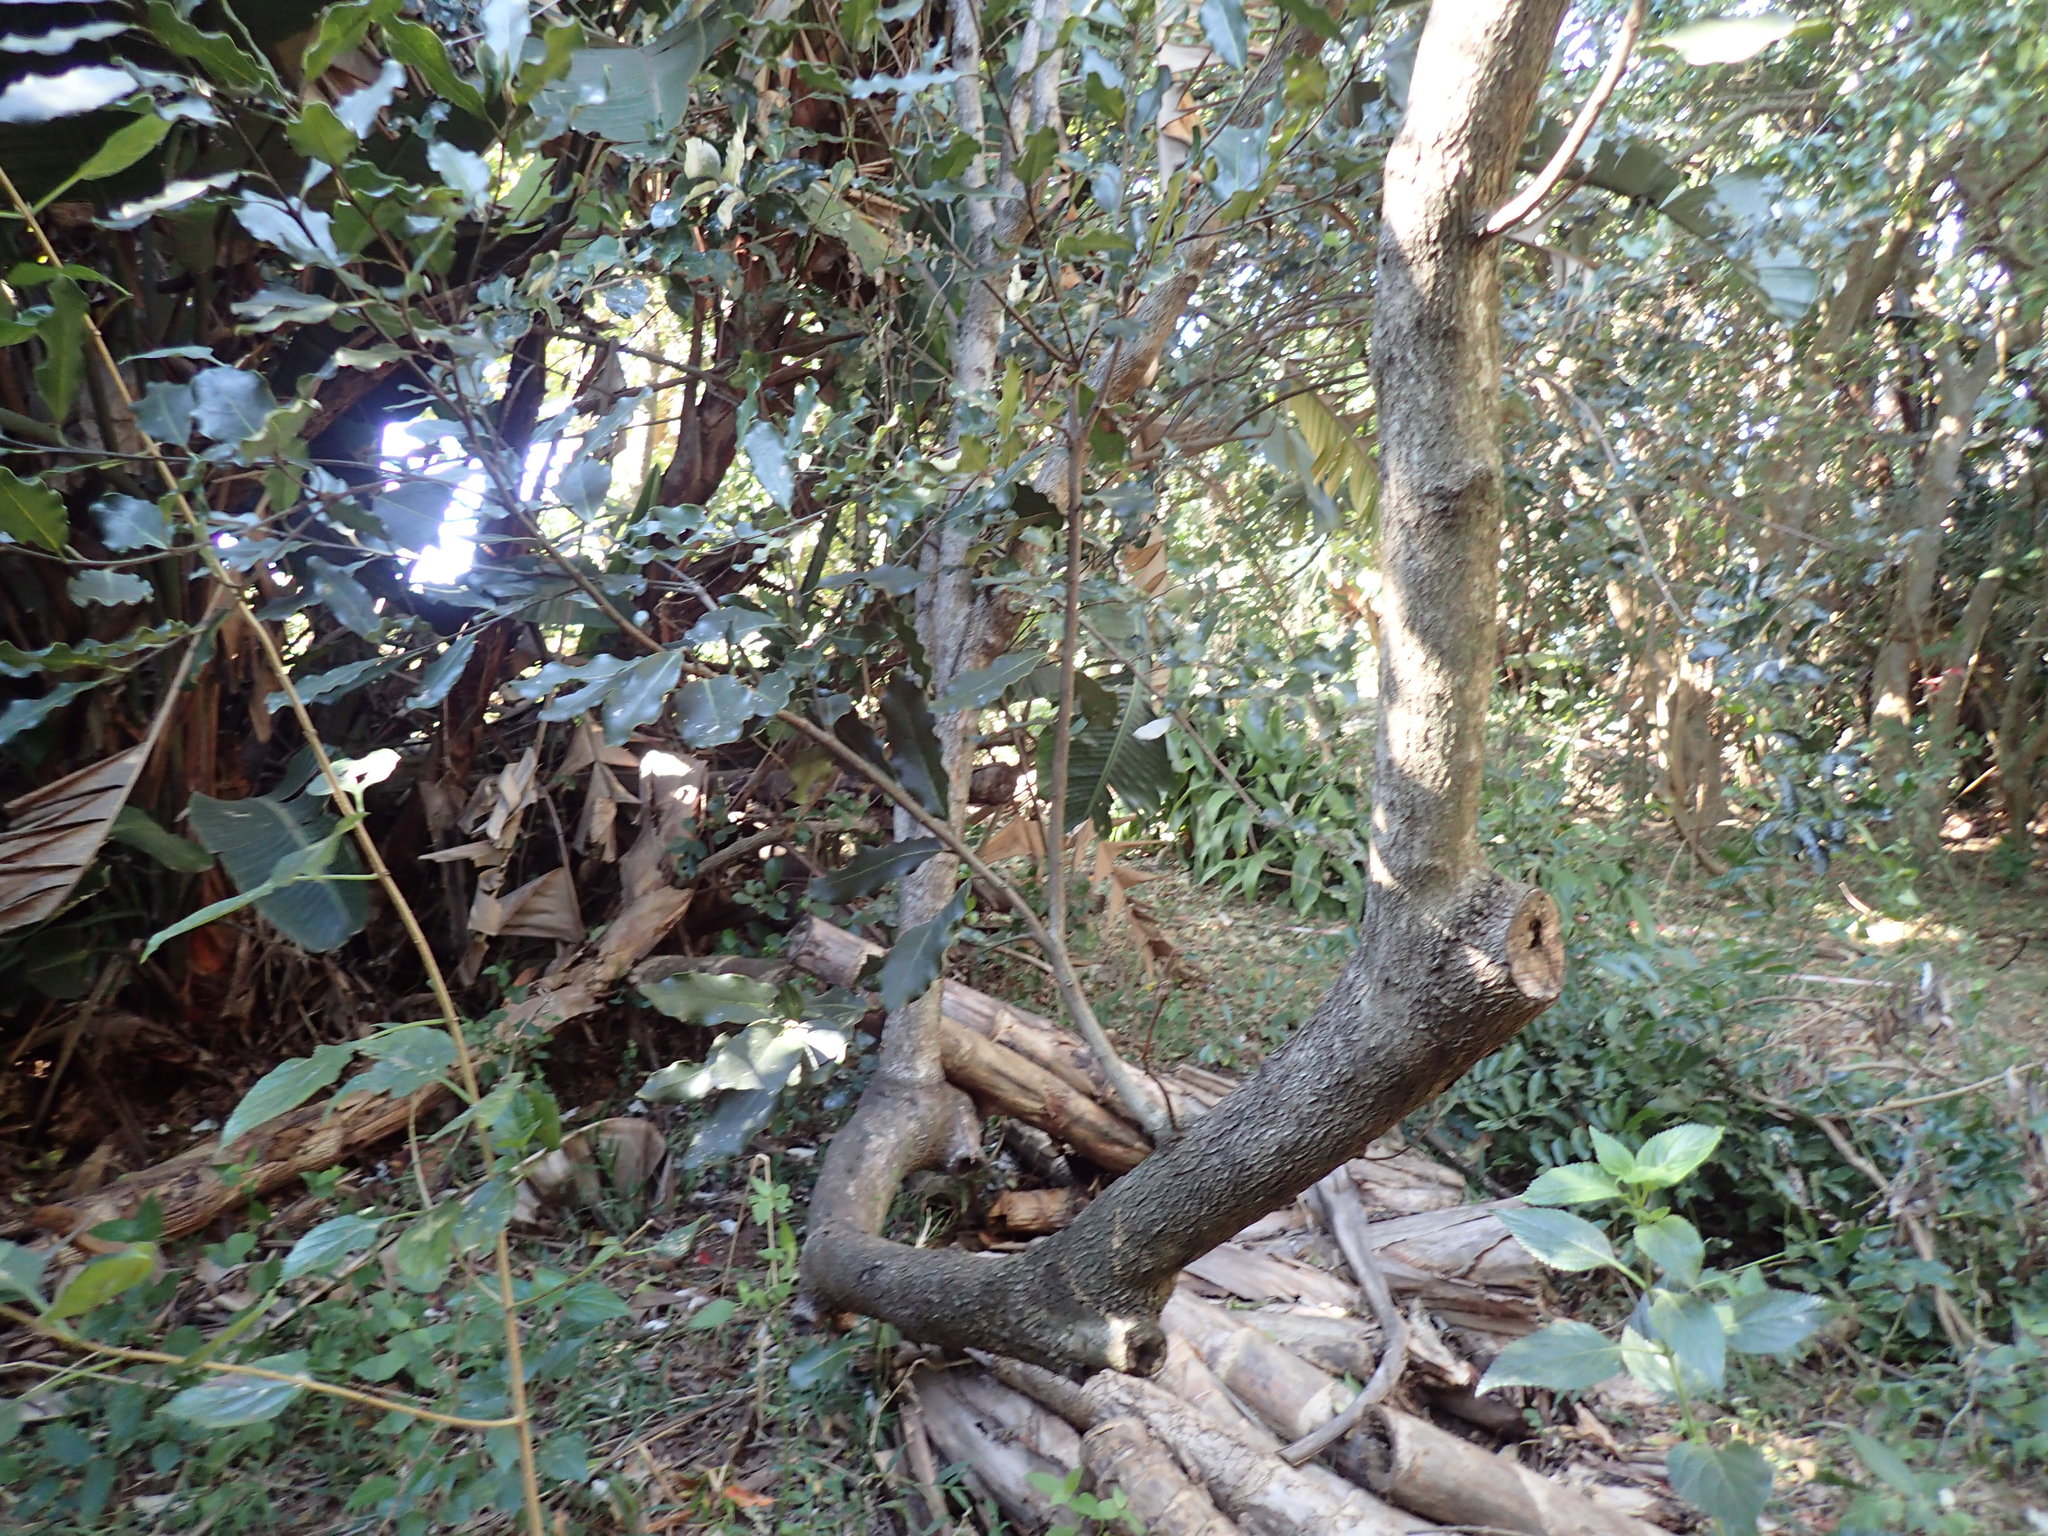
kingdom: Plantae
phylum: Tracheophyta
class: Magnoliopsida
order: Ericales
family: Ebenaceae
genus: Euclea
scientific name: Euclea natalensis
